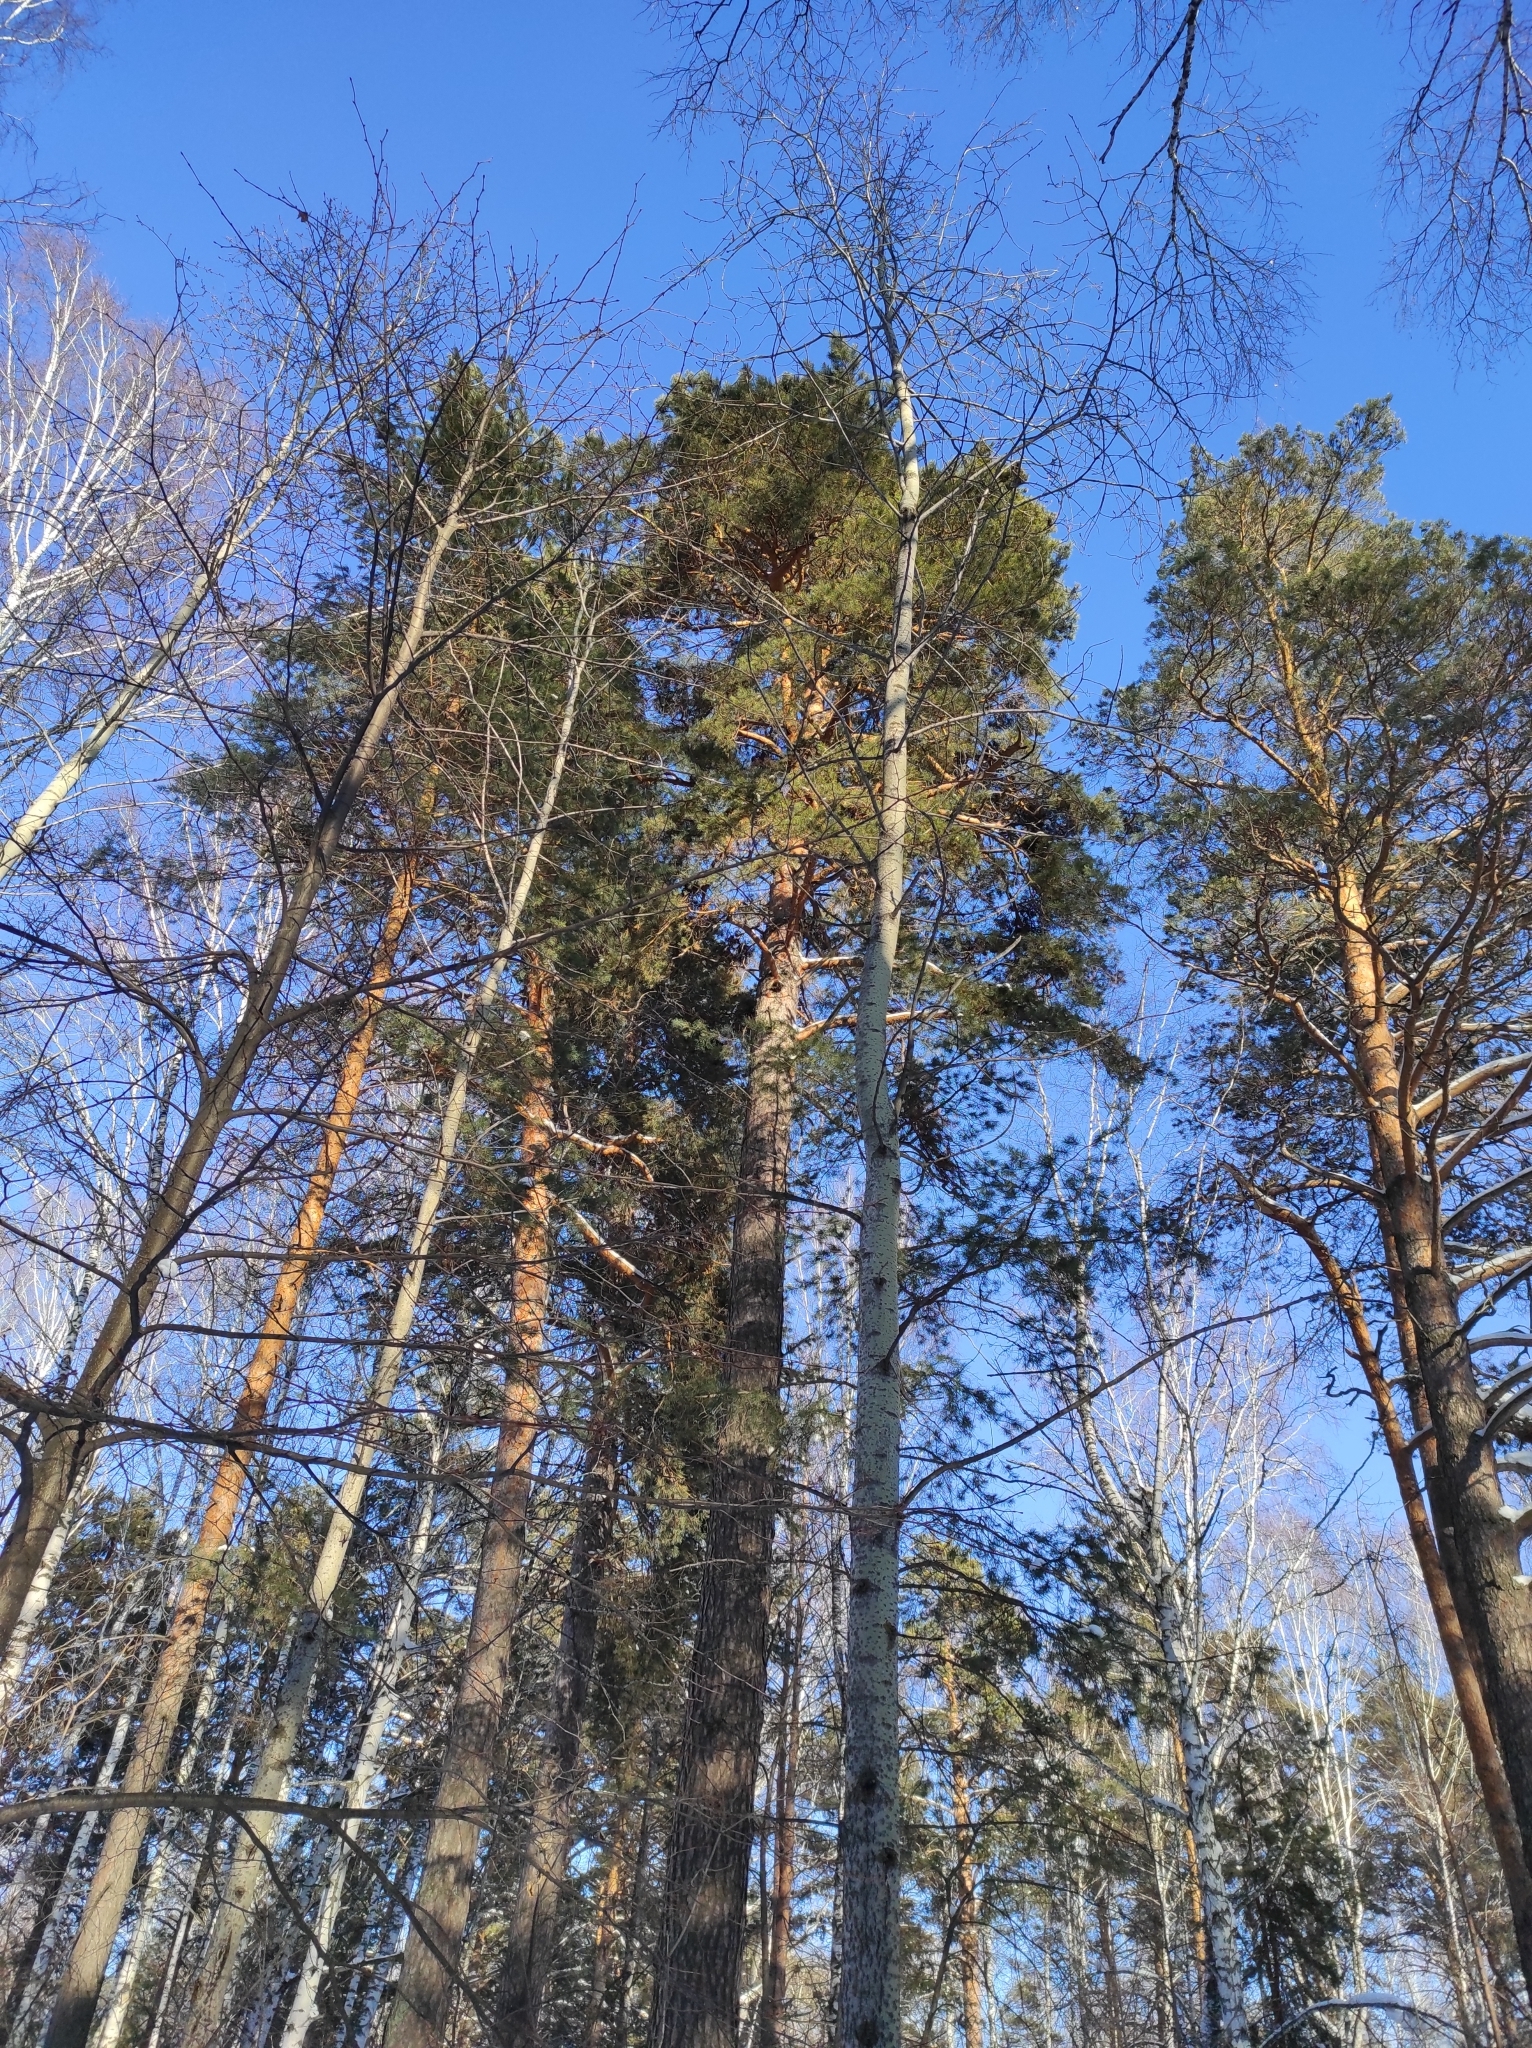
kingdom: Plantae
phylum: Tracheophyta
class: Pinopsida
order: Pinales
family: Pinaceae
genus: Pinus
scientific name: Pinus sylvestris
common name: Scots pine
